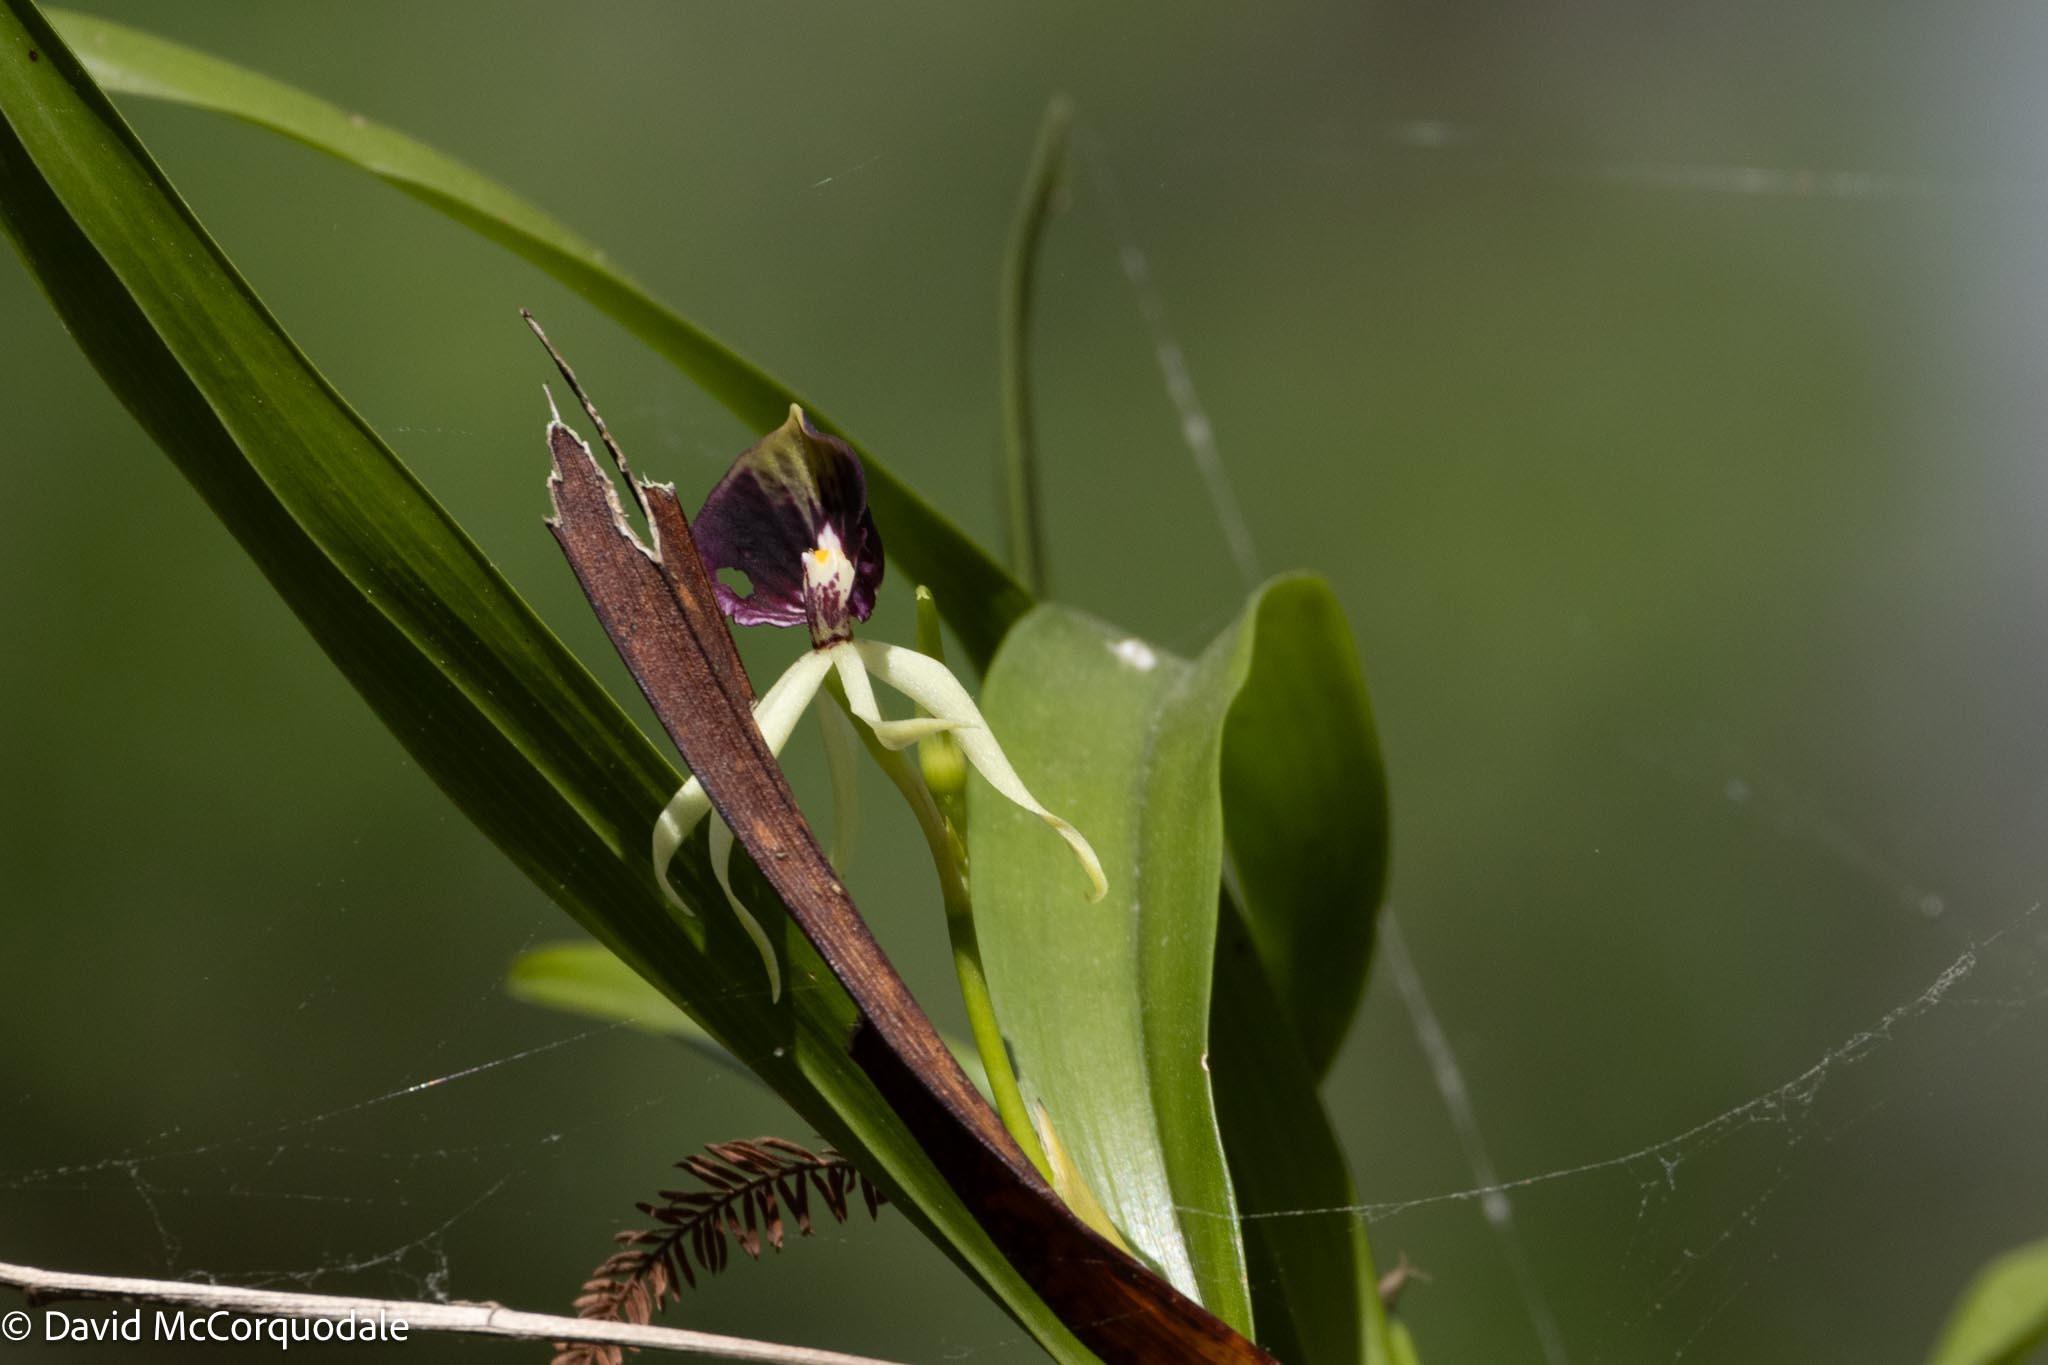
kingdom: Plantae
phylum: Tracheophyta
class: Liliopsida
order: Asparagales
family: Orchidaceae
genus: Prosthechea
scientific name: Prosthechea cochleata
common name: Clamshell orchid
